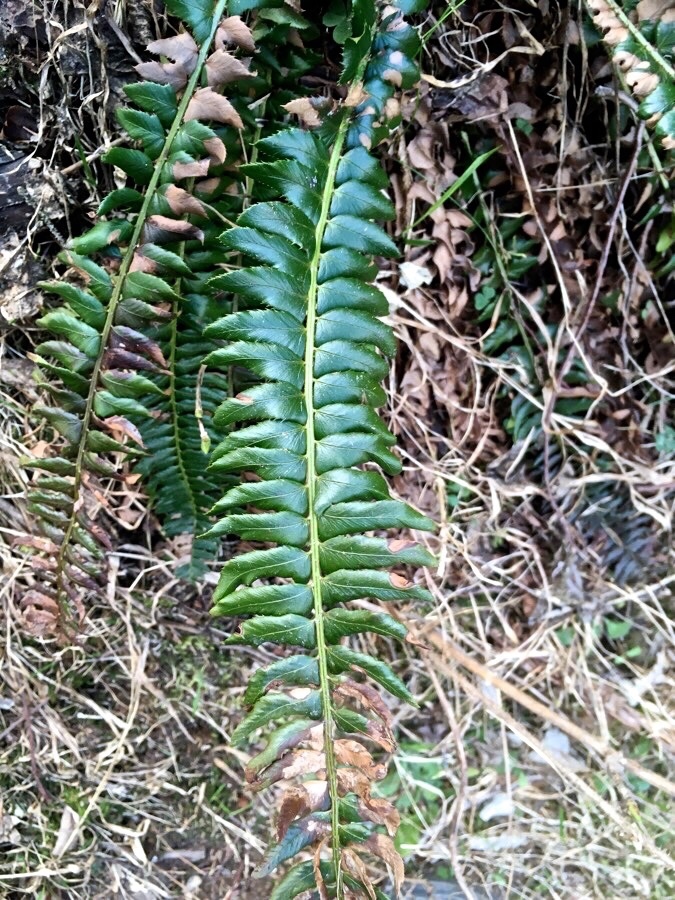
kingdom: Plantae
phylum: Tracheophyta
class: Polypodiopsida
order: Polypodiales
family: Dryopteridaceae
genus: Polystichum
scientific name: Polystichum lonchitis
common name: Holly fern
